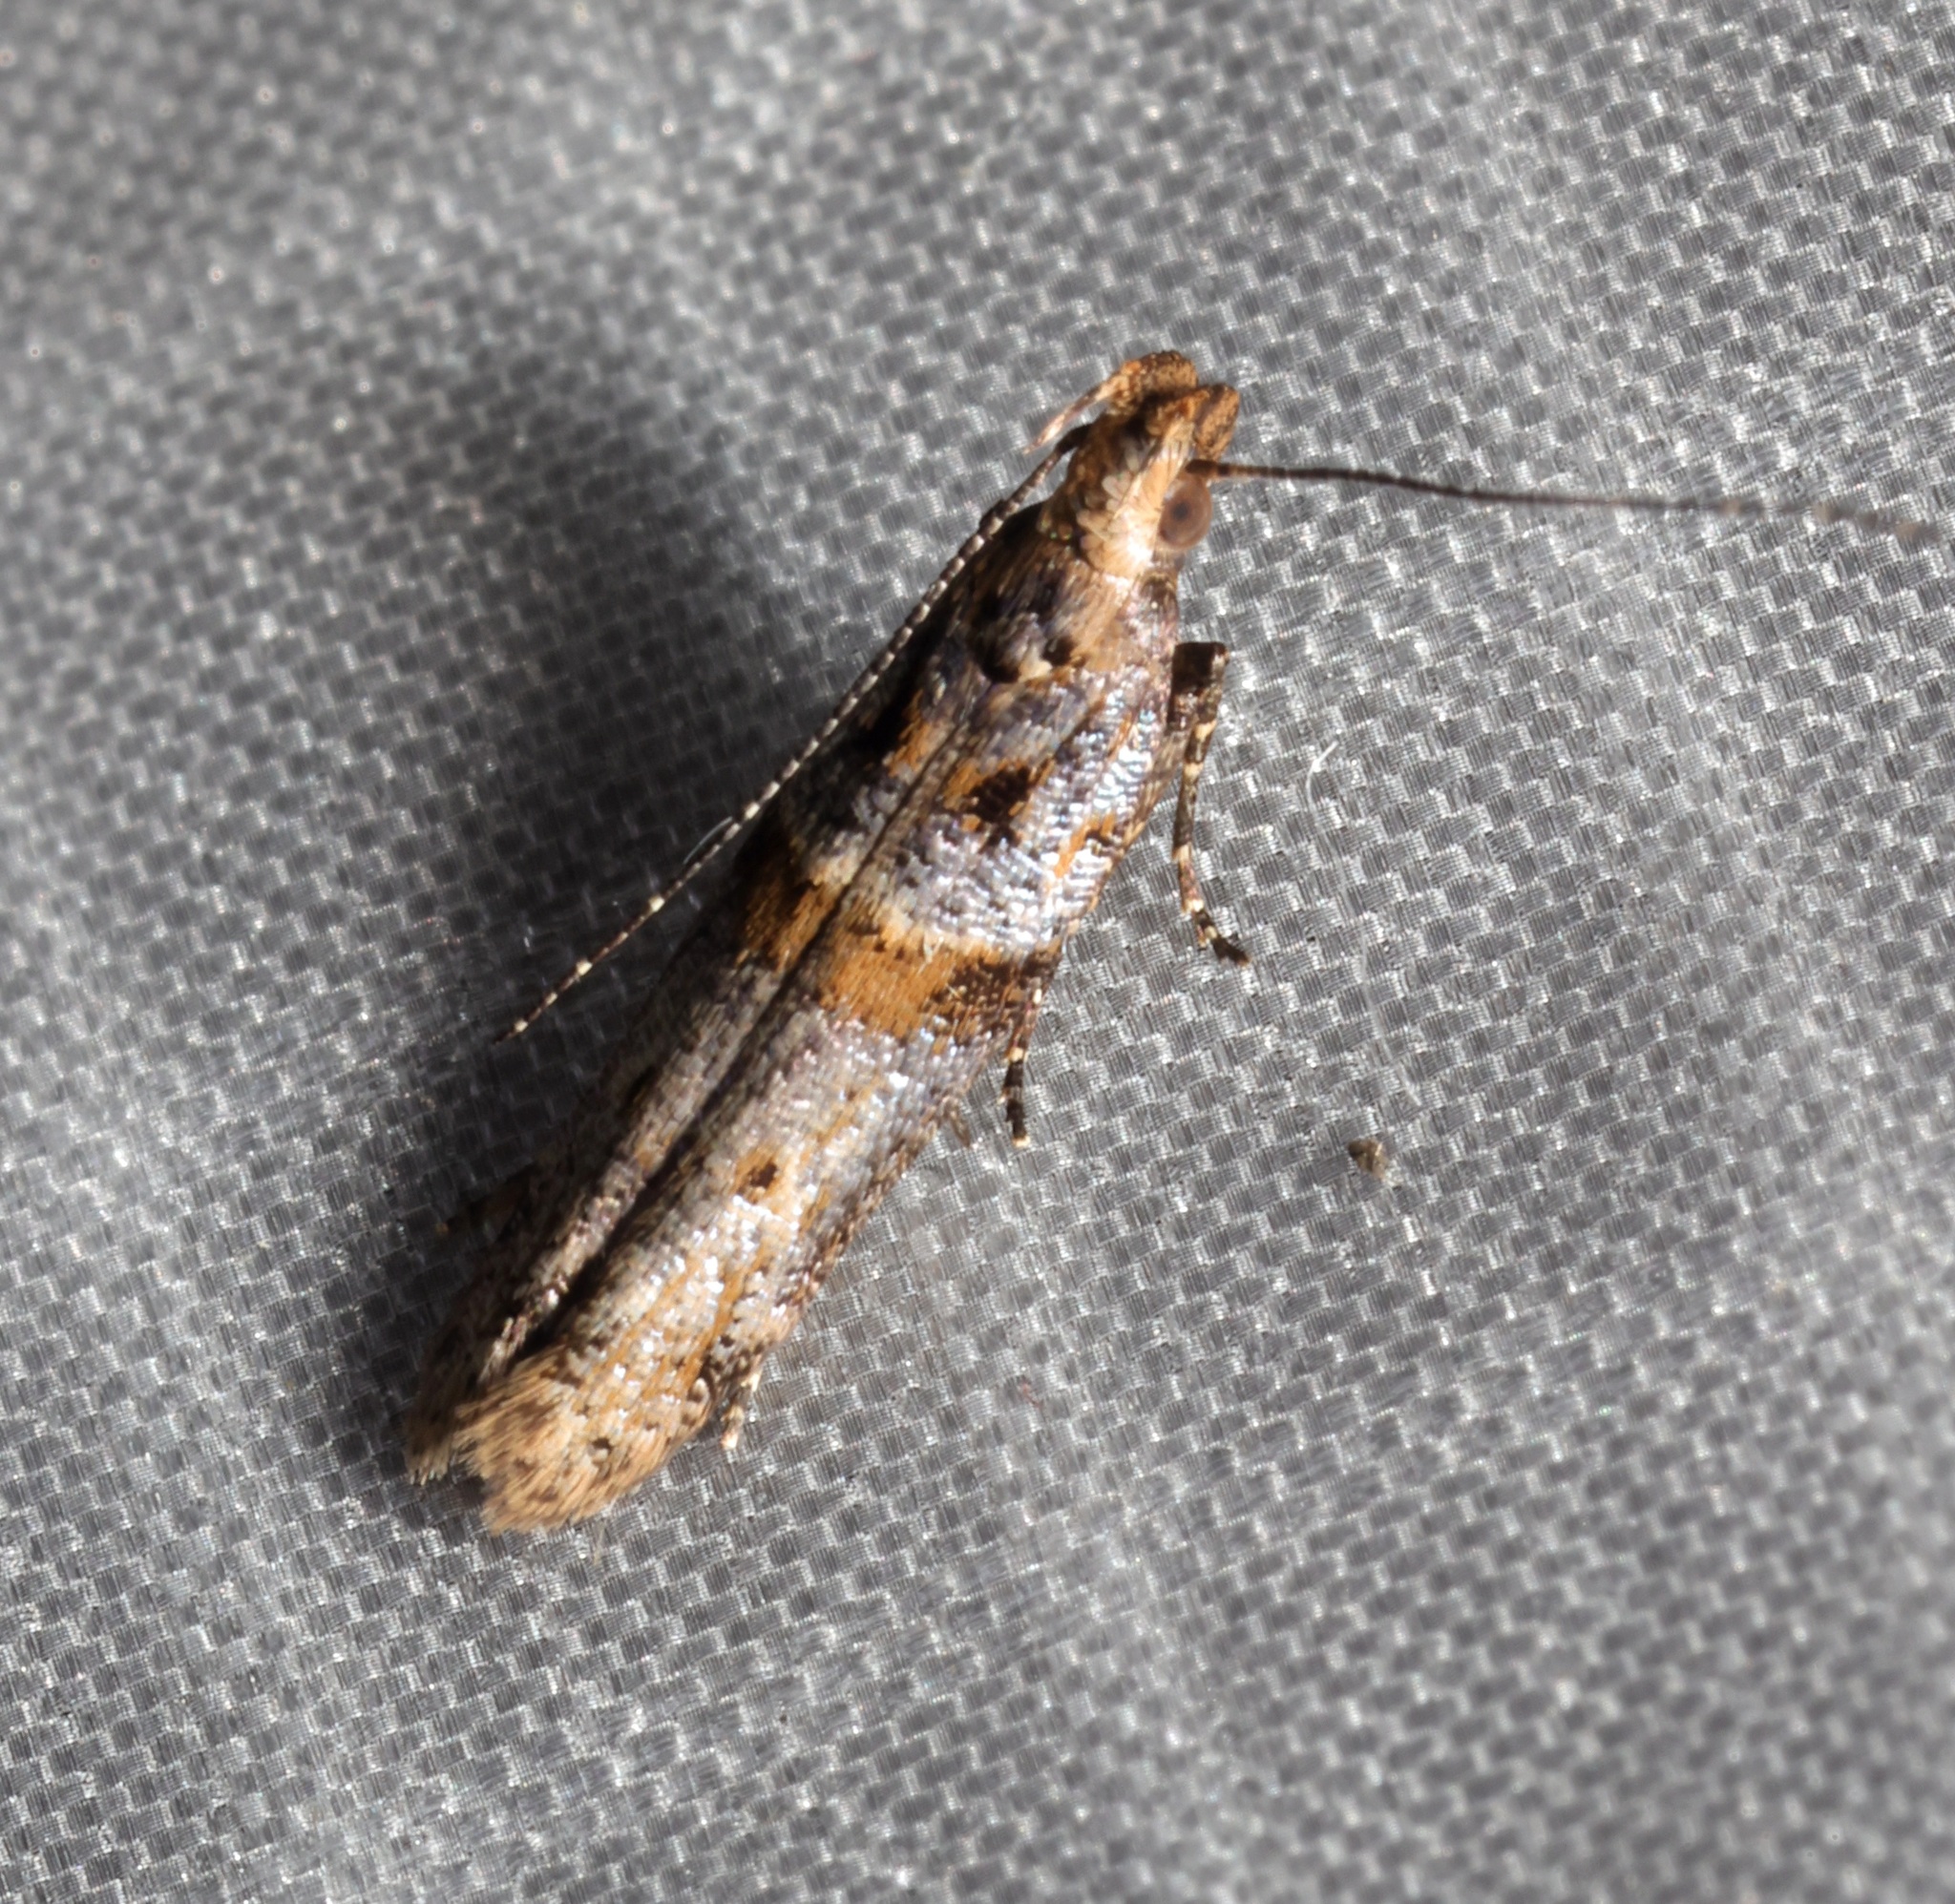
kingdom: Animalia
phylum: Arthropoda
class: Insecta
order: Lepidoptera
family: Gelechiidae
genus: Deltophora
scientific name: Deltophora polliniferens
